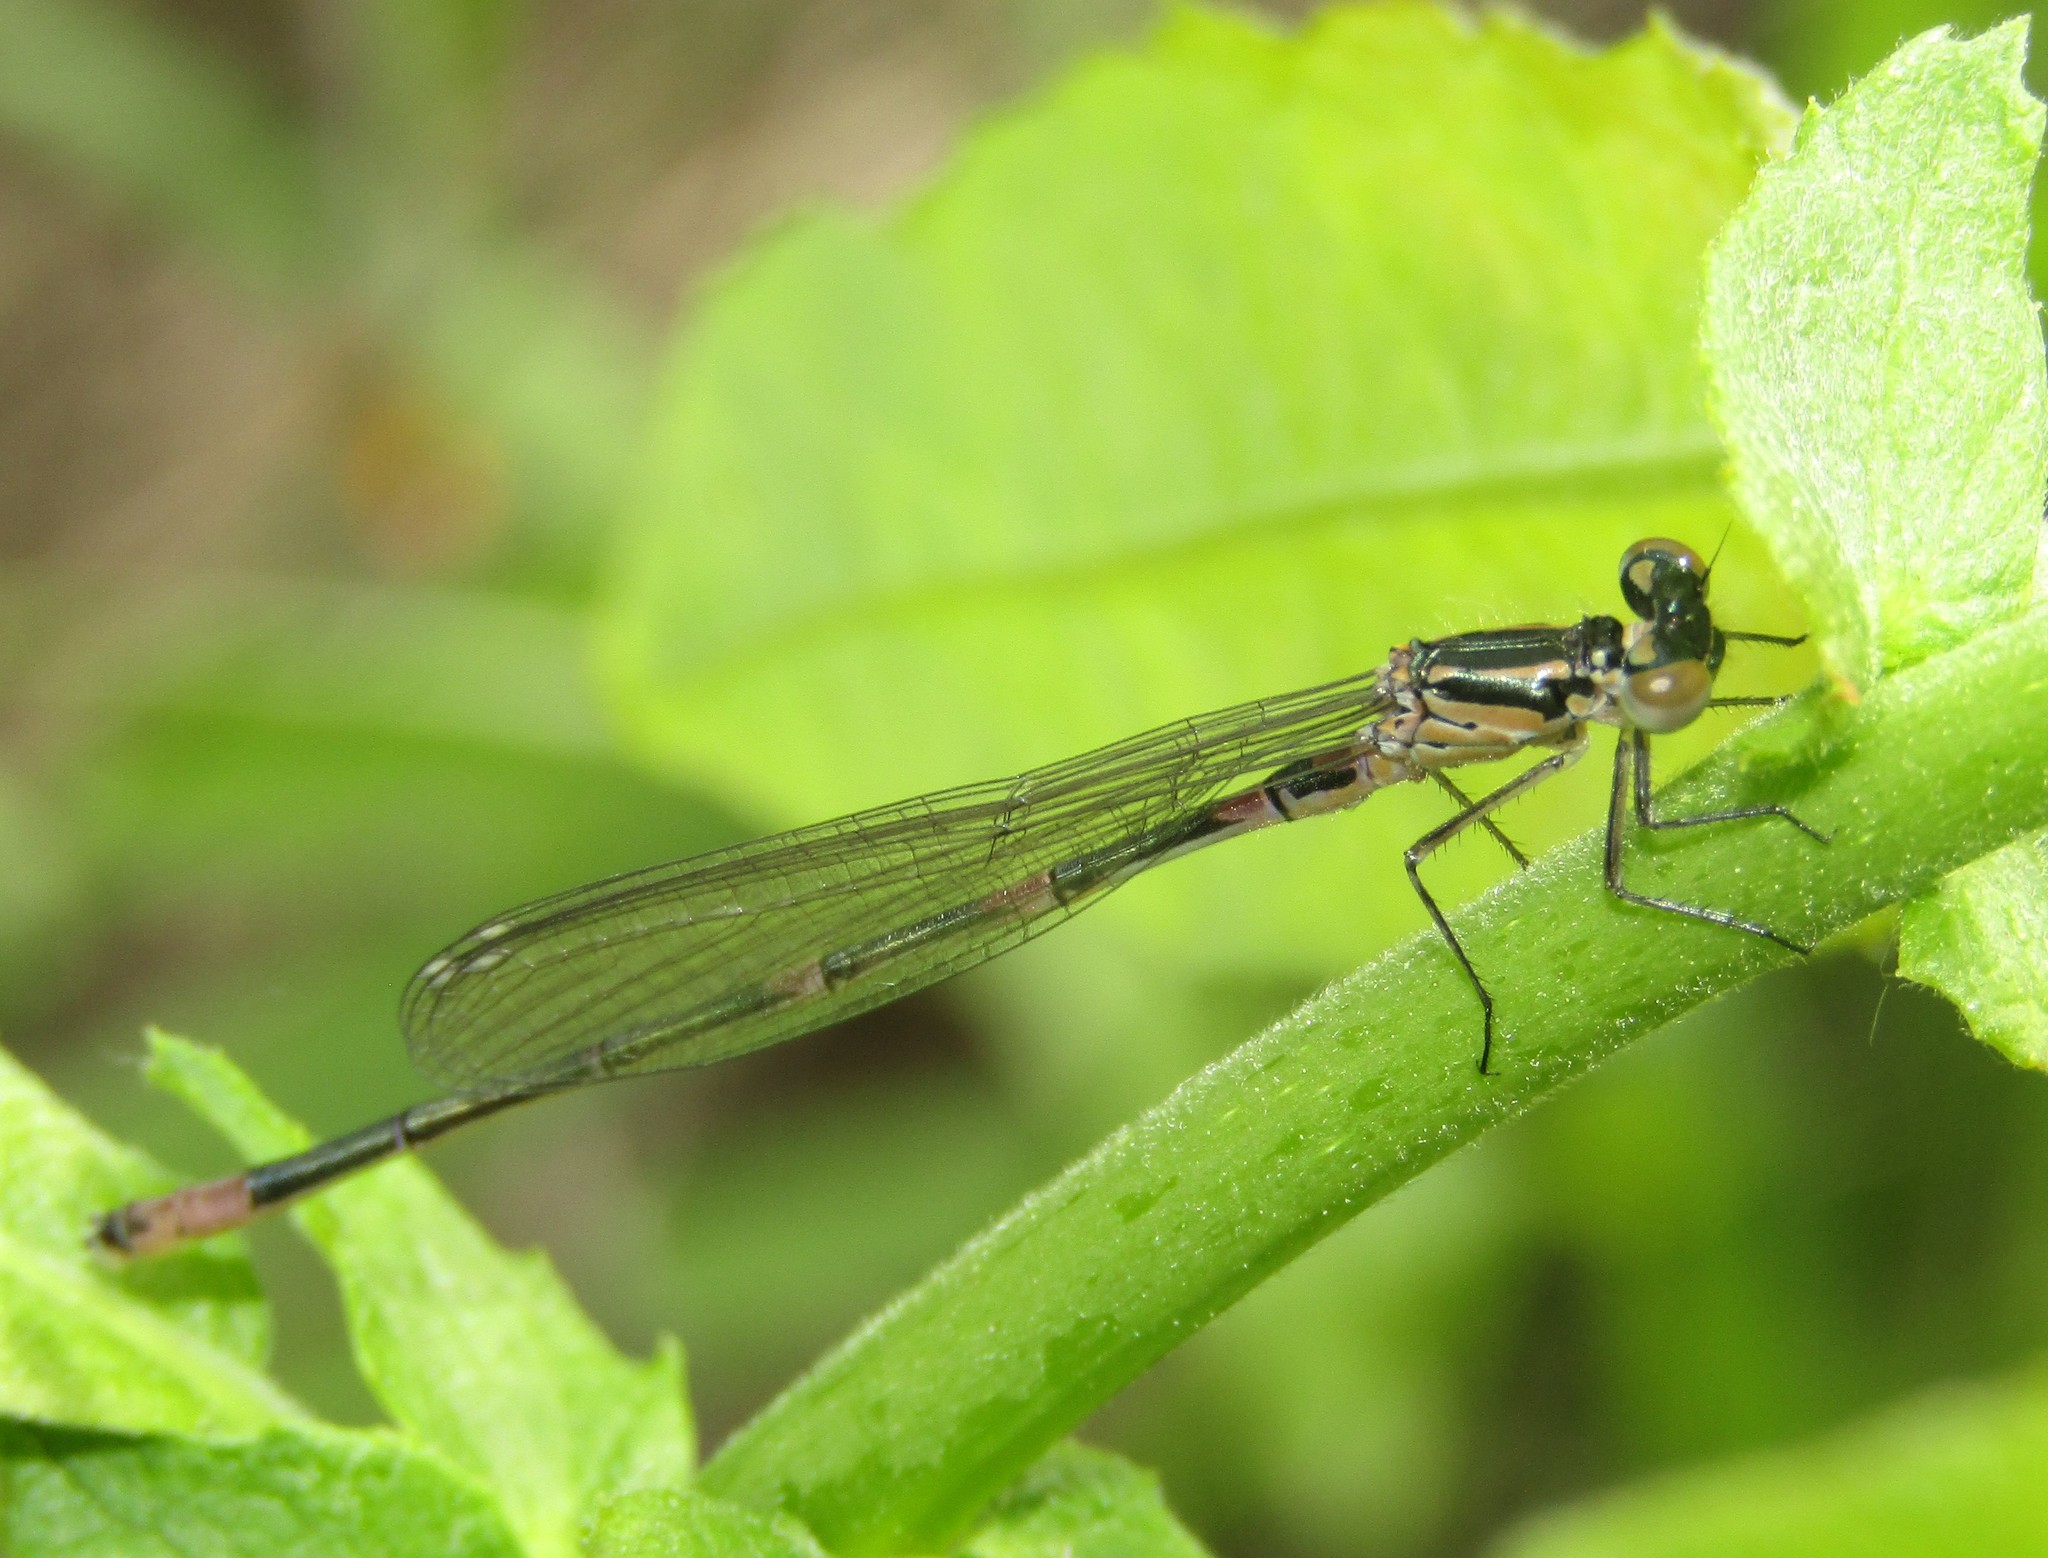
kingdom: Animalia
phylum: Arthropoda
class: Insecta
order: Odonata
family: Coenagrionidae
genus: Coenagrion
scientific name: Coenagrion pulchellum
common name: Variable bluet
